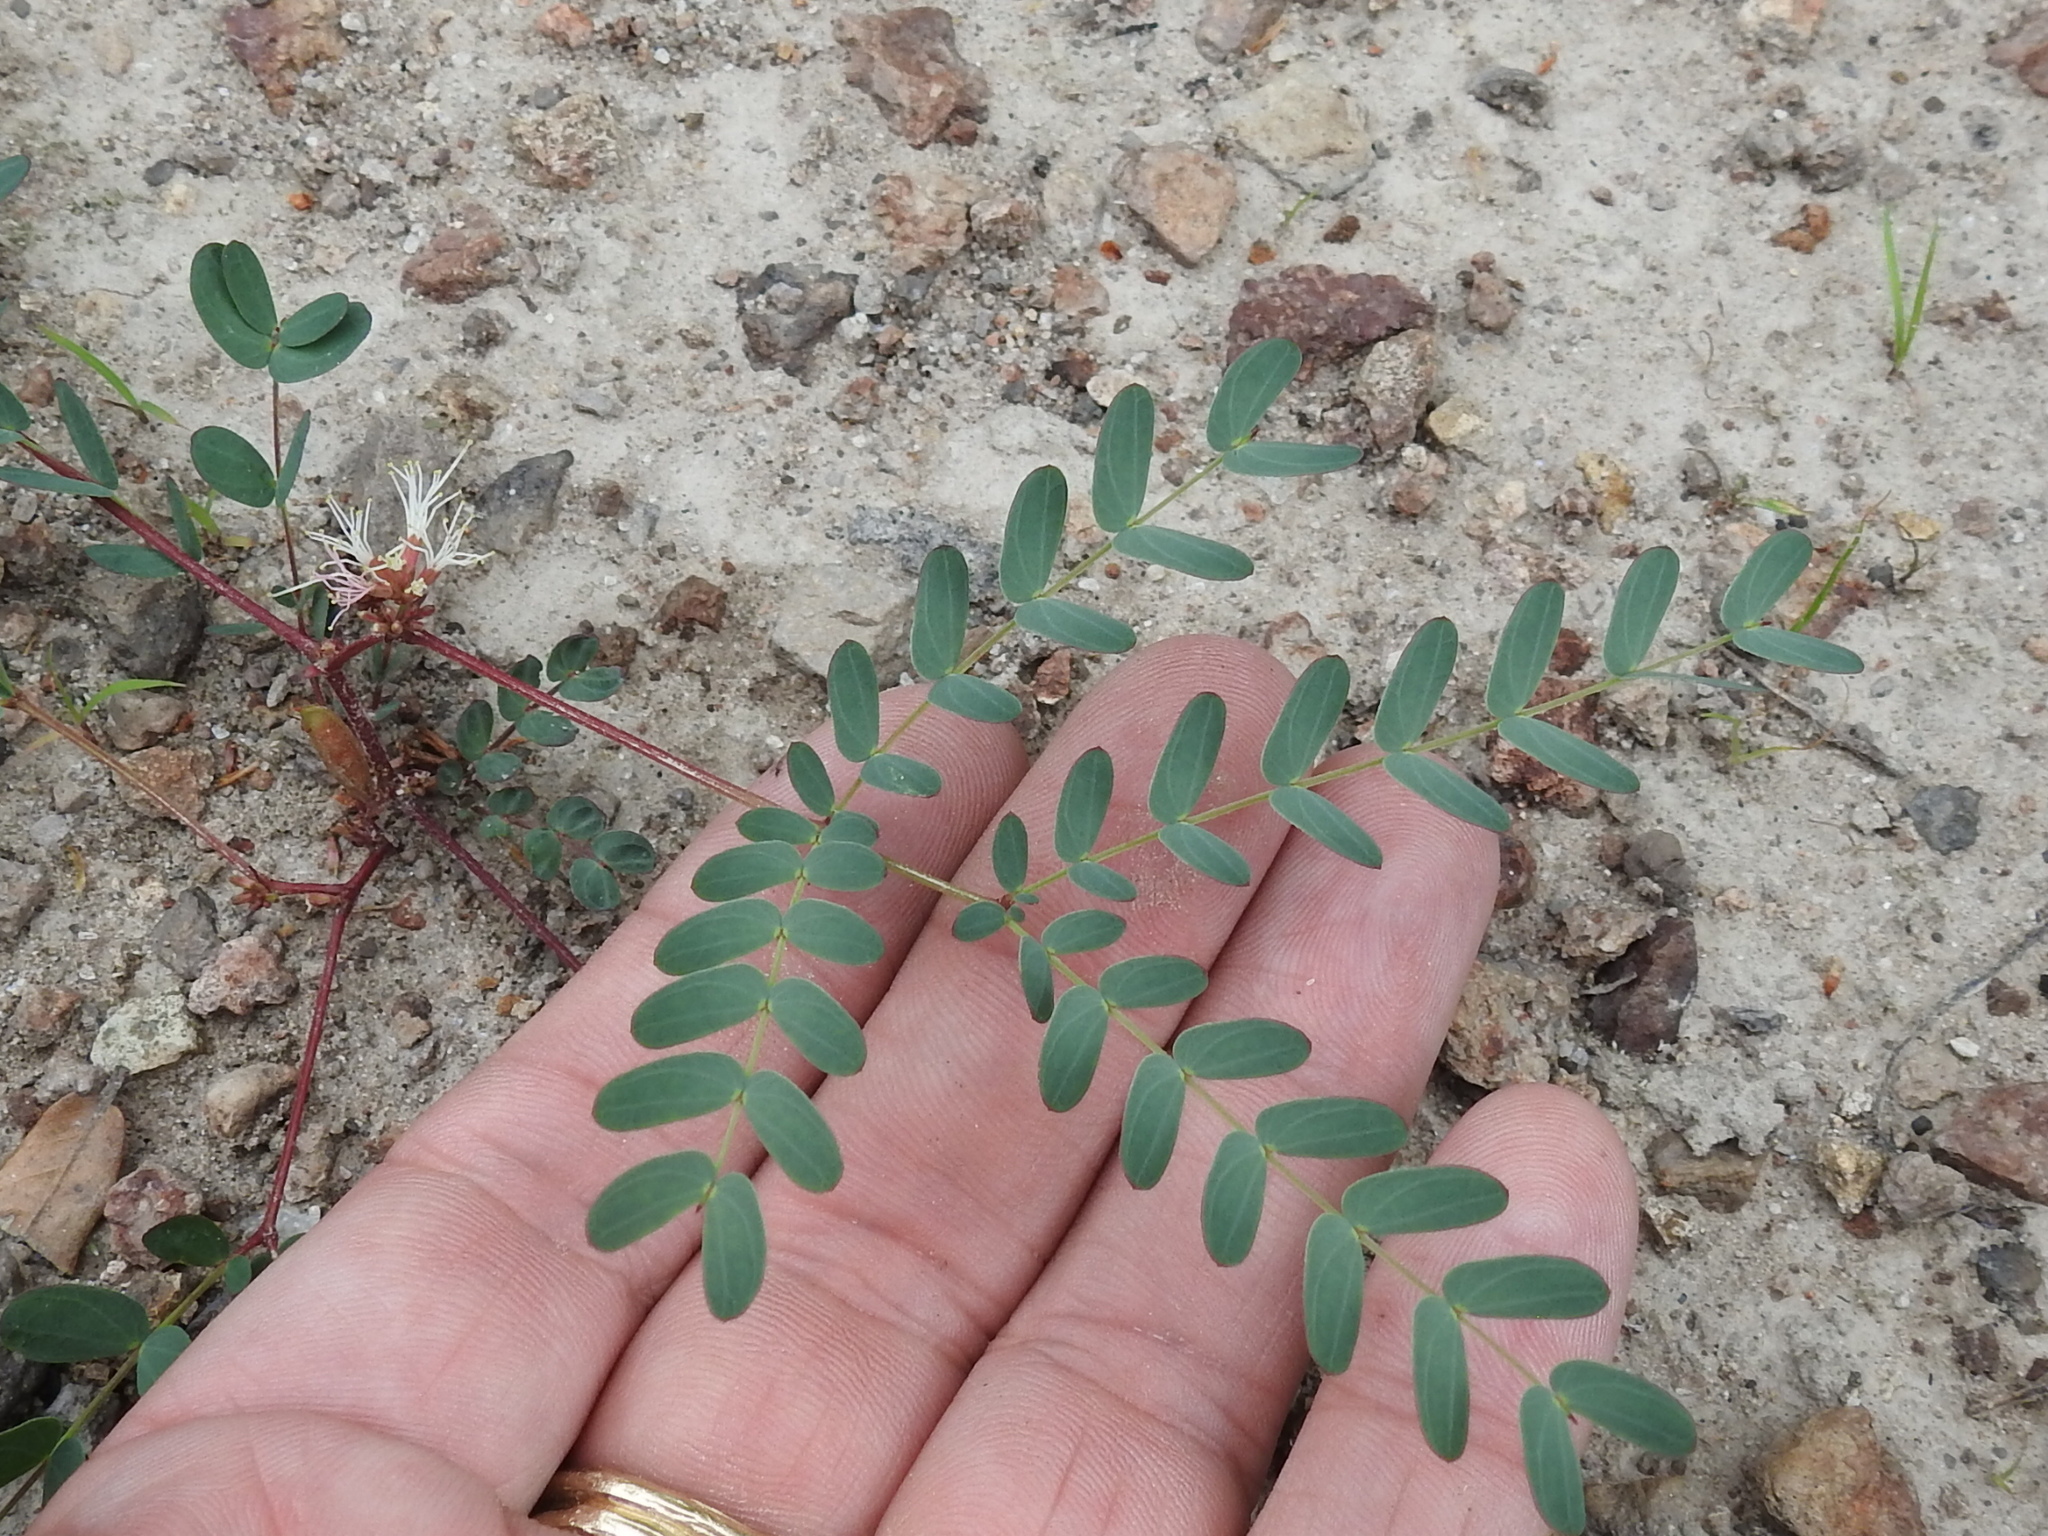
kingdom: Plantae
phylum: Tracheophyta
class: Magnoliopsida
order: Fabales
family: Fabaceae
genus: Calliandra
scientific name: Calliandra humilis
